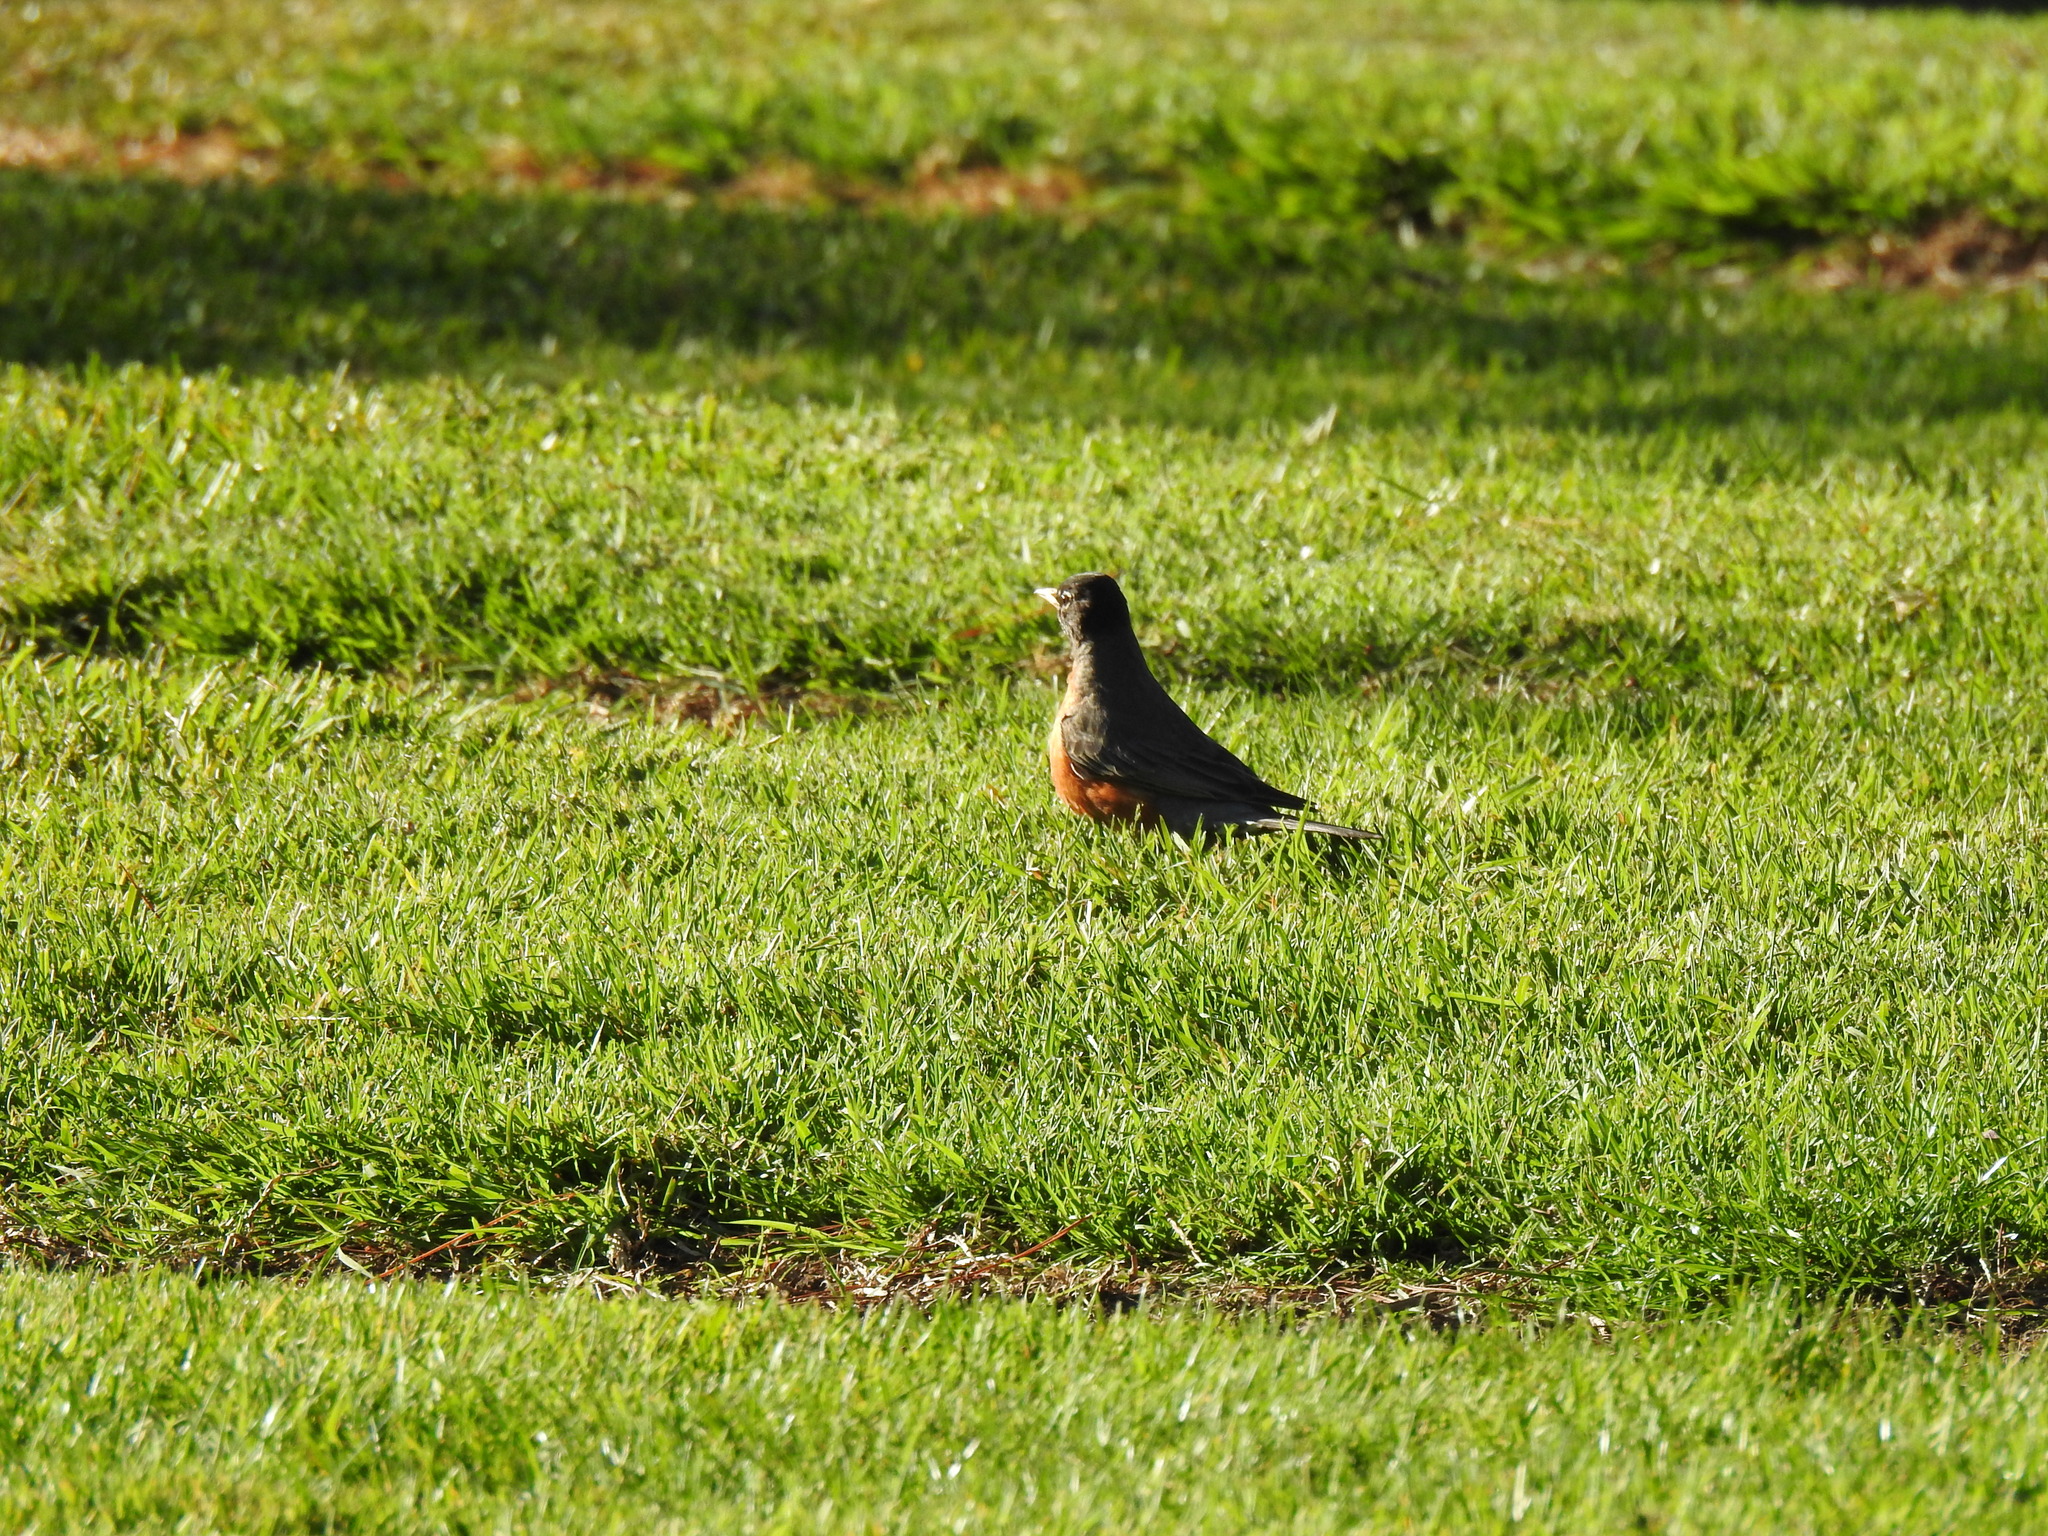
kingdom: Animalia
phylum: Chordata
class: Aves
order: Passeriformes
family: Turdidae
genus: Turdus
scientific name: Turdus migratorius
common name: American robin
